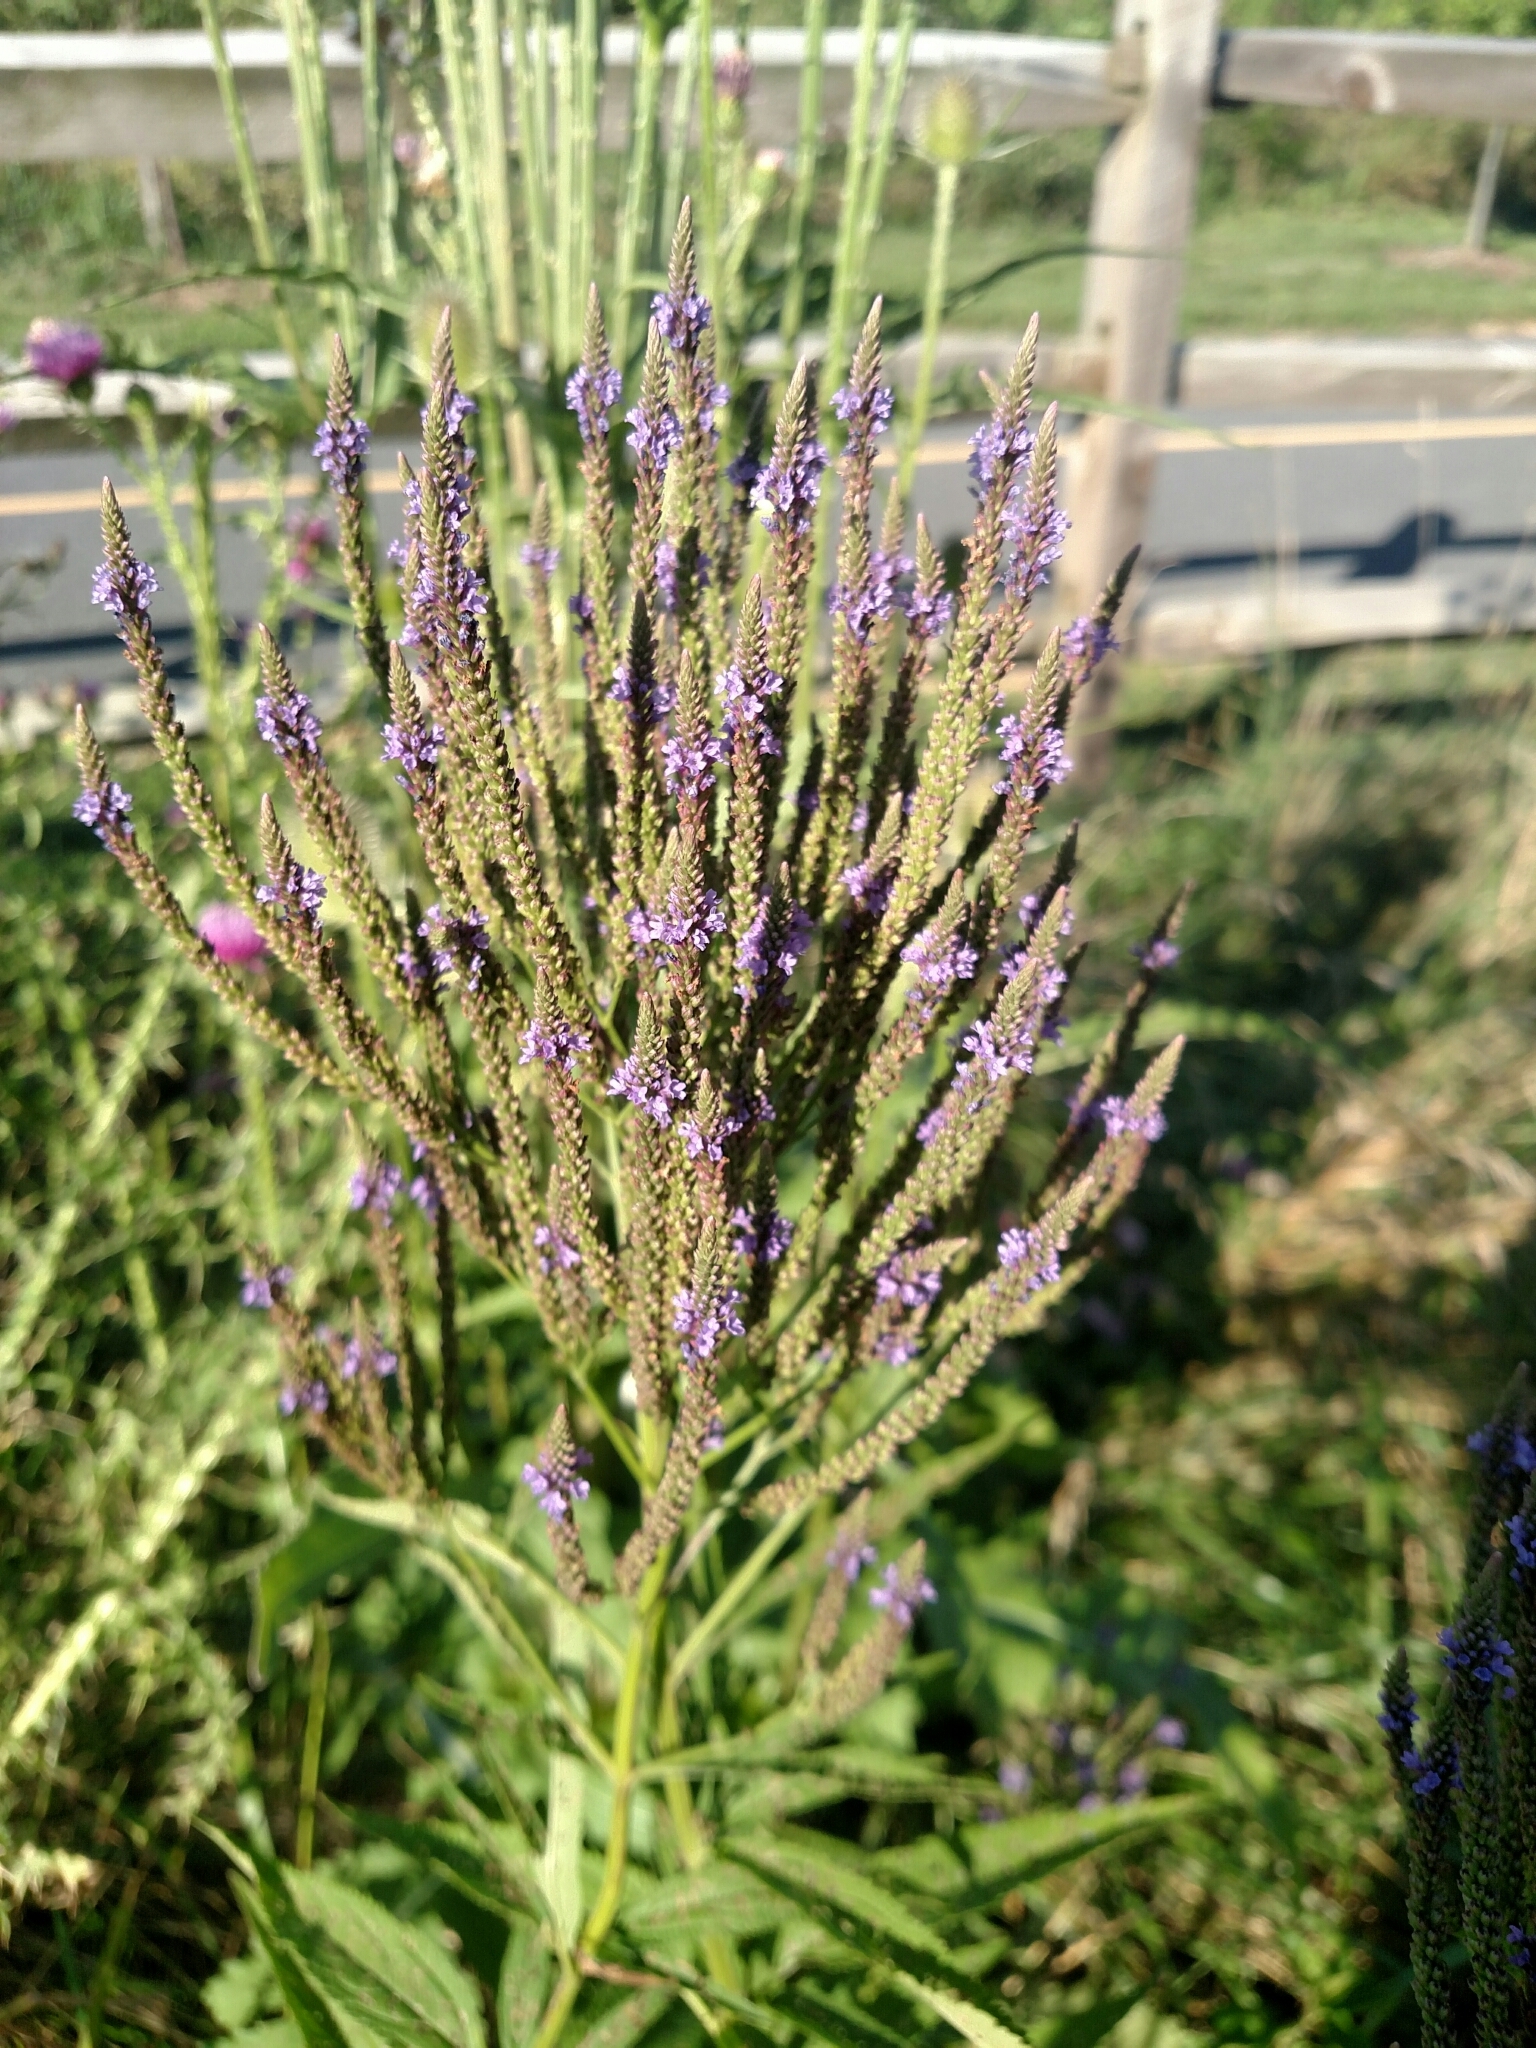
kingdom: Plantae
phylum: Tracheophyta
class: Magnoliopsida
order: Lamiales
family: Verbenaceae
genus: Verbena
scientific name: Verbena hastata
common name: American blue vervain
